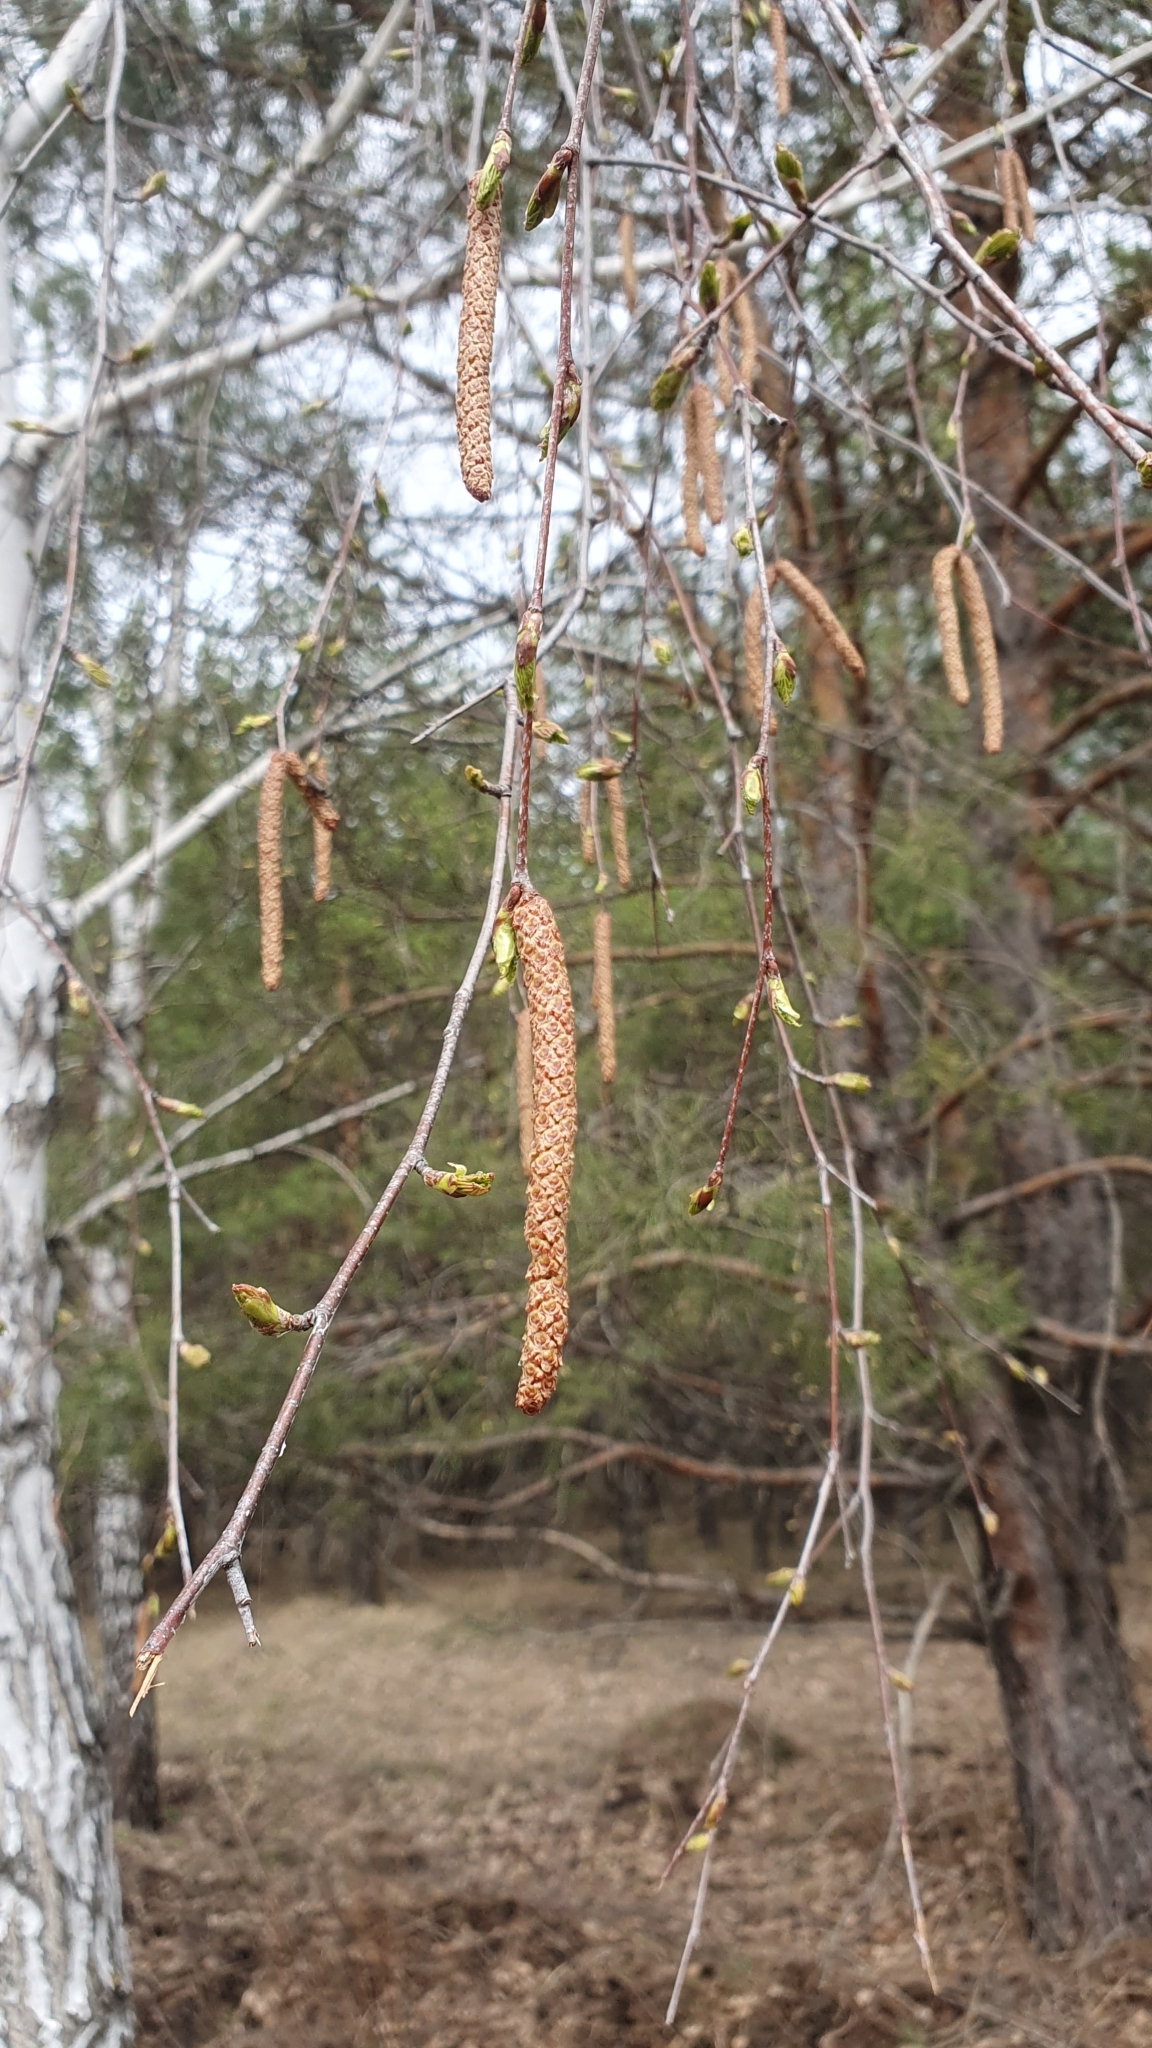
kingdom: Plantae
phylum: Tracheophyta
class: Magnoliopsida
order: Fagales
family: Betulaceae
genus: Betula
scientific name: Betula pendula
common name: Silver birch
